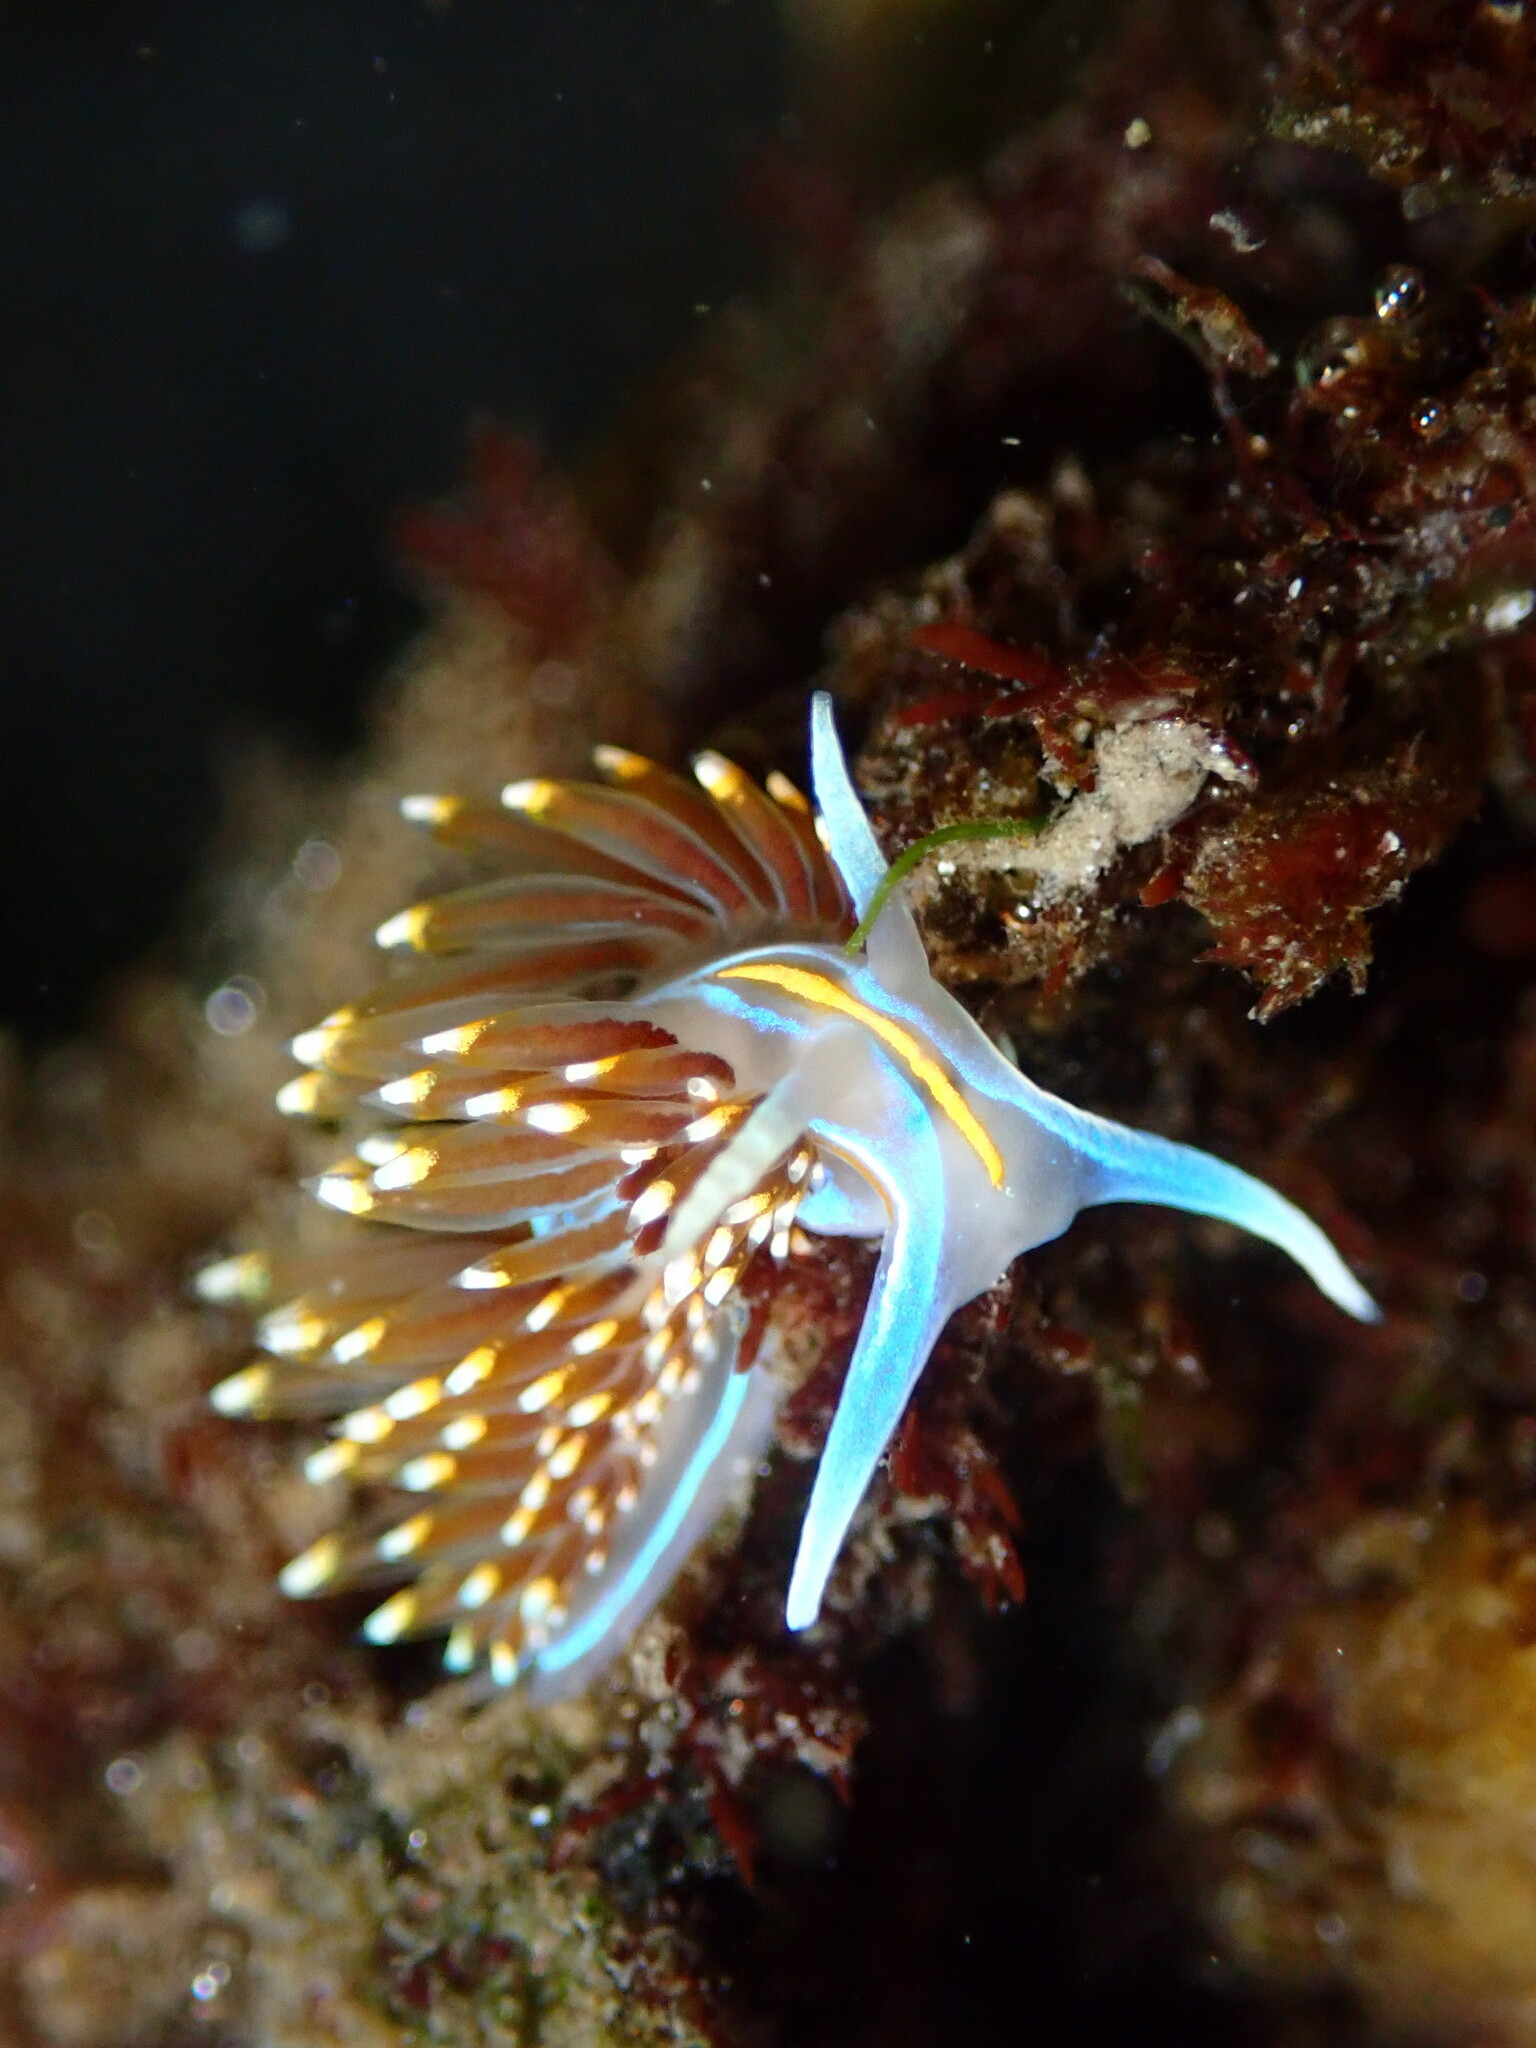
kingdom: Animalia
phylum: Mollusca
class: Gastropoda
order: Nudibranchia
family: Myrrhinidae
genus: Hermissenda
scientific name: Hermissenda opalescens
